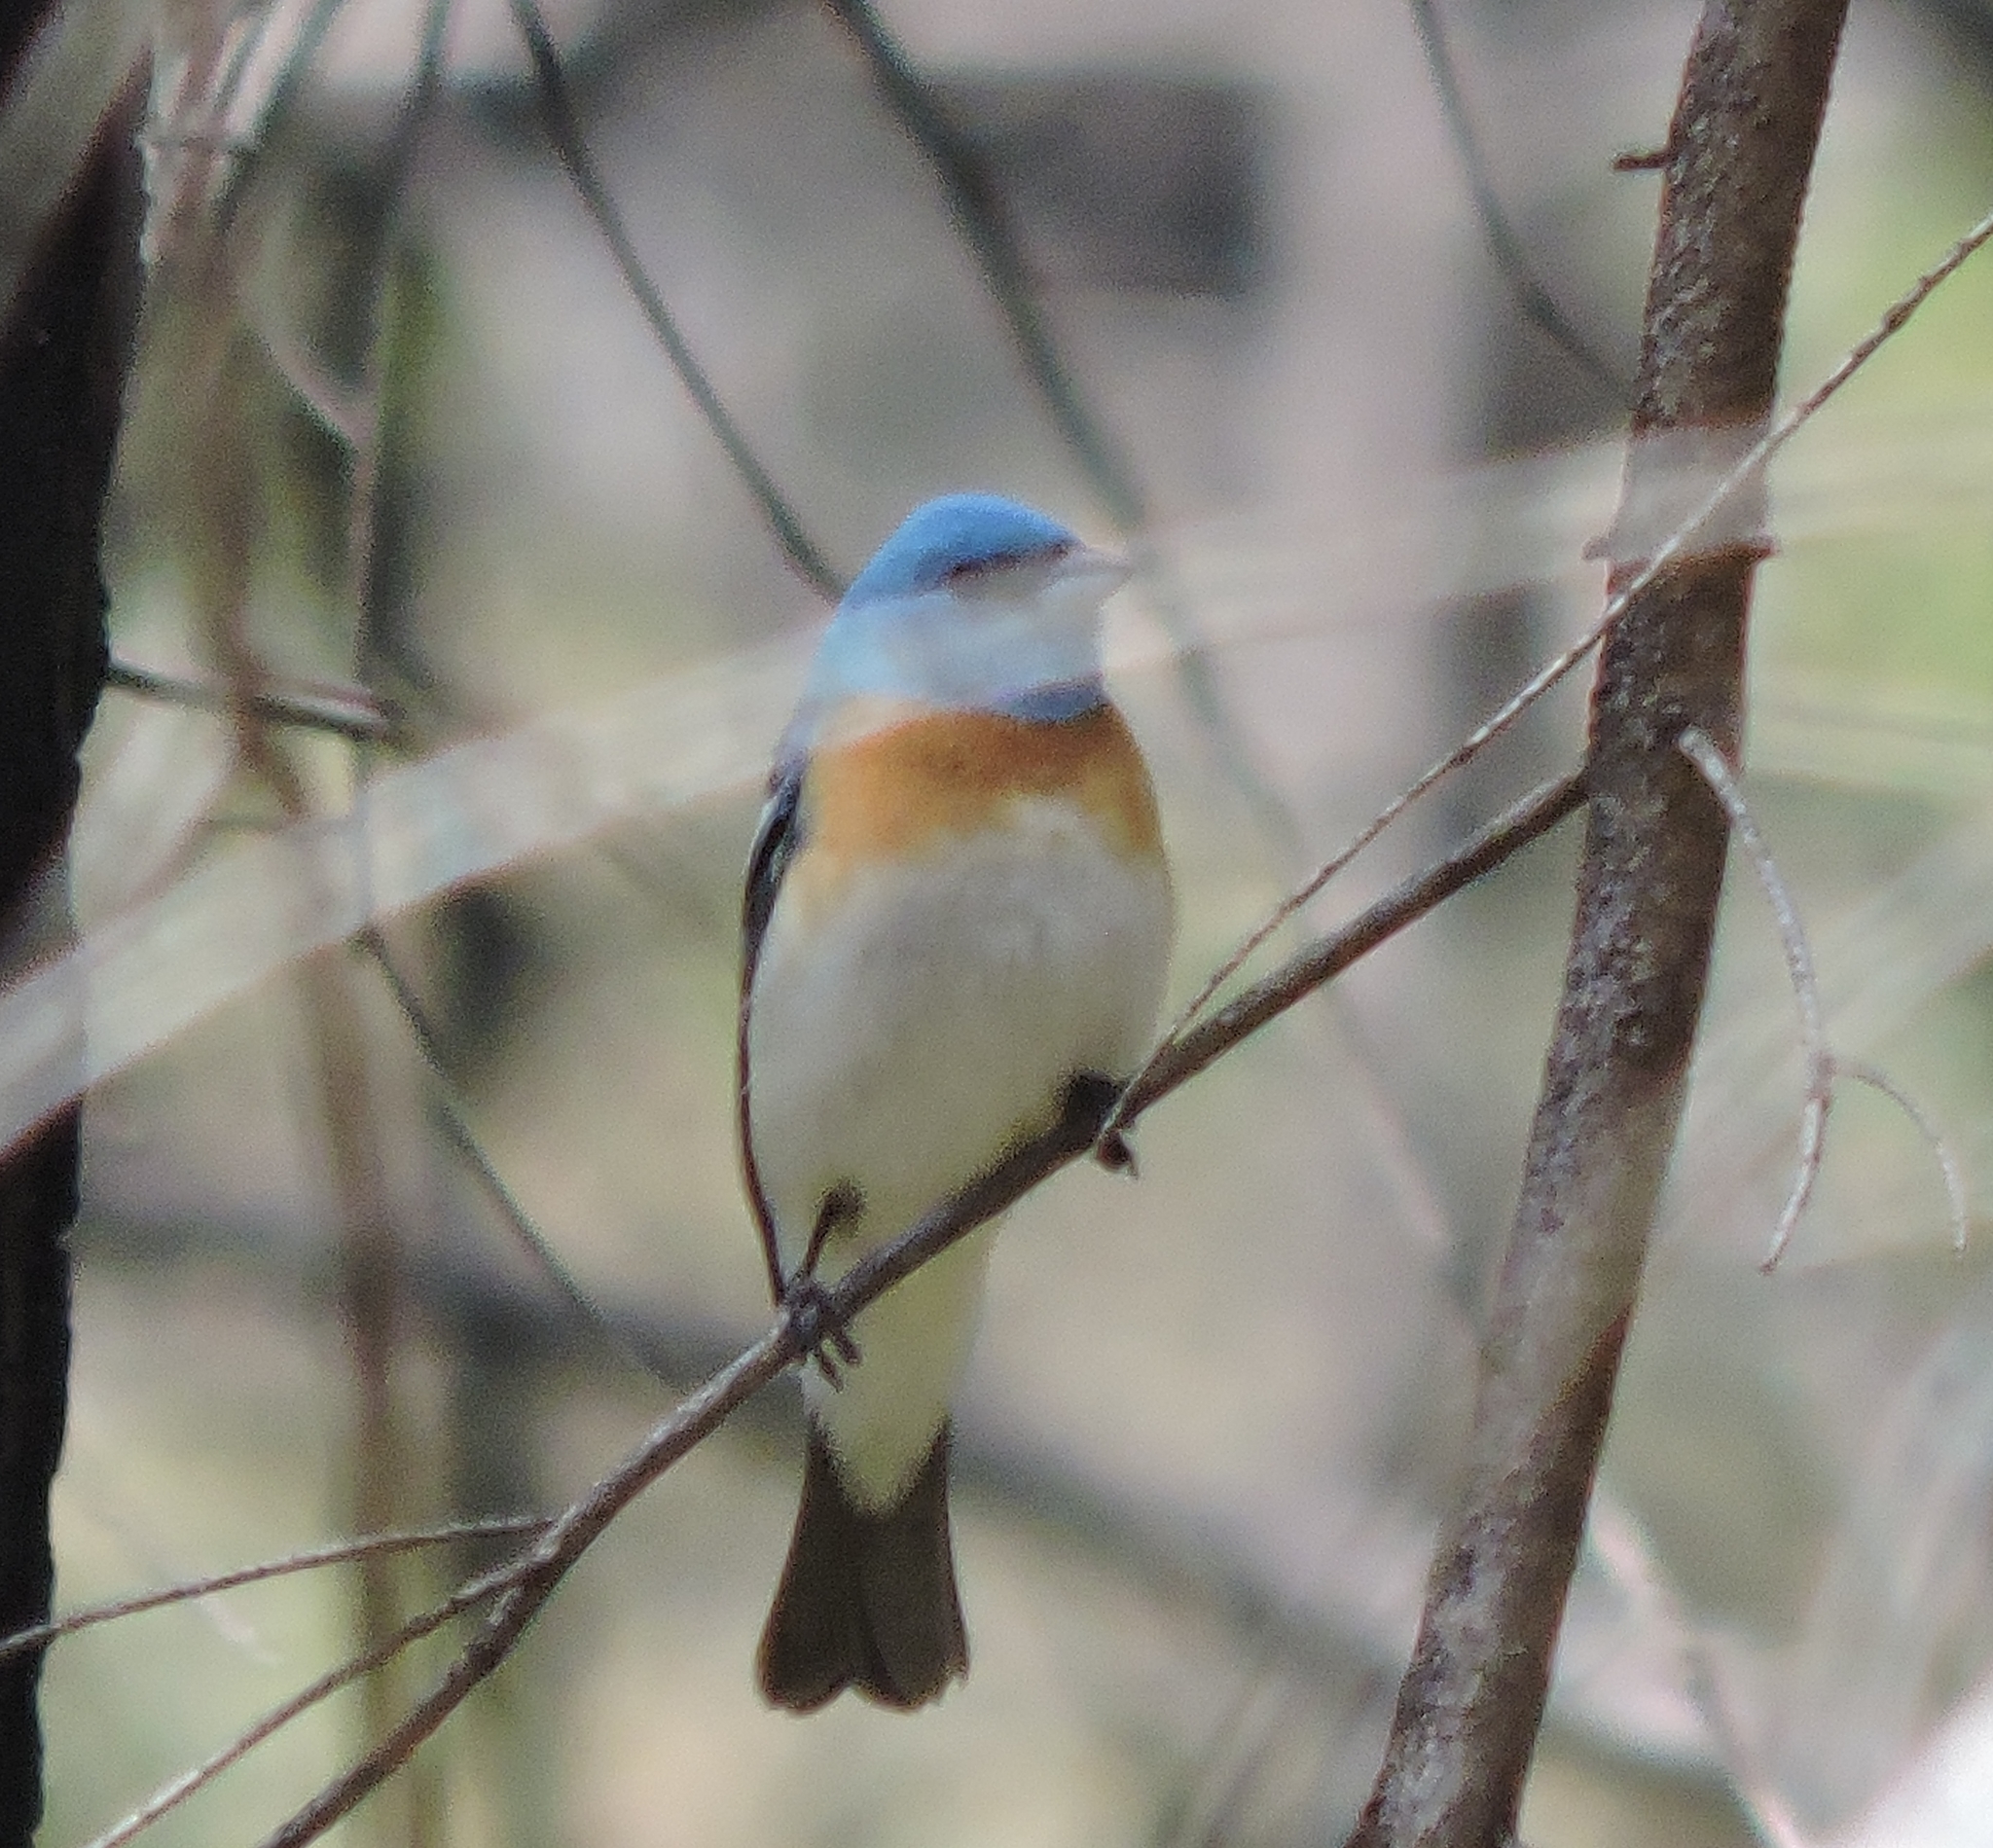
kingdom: Animalia
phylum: Chordata
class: Aves
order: Passeriformes
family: Cardinalidae
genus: Passerina
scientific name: Passerina amoena
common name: Lazuli bunting
